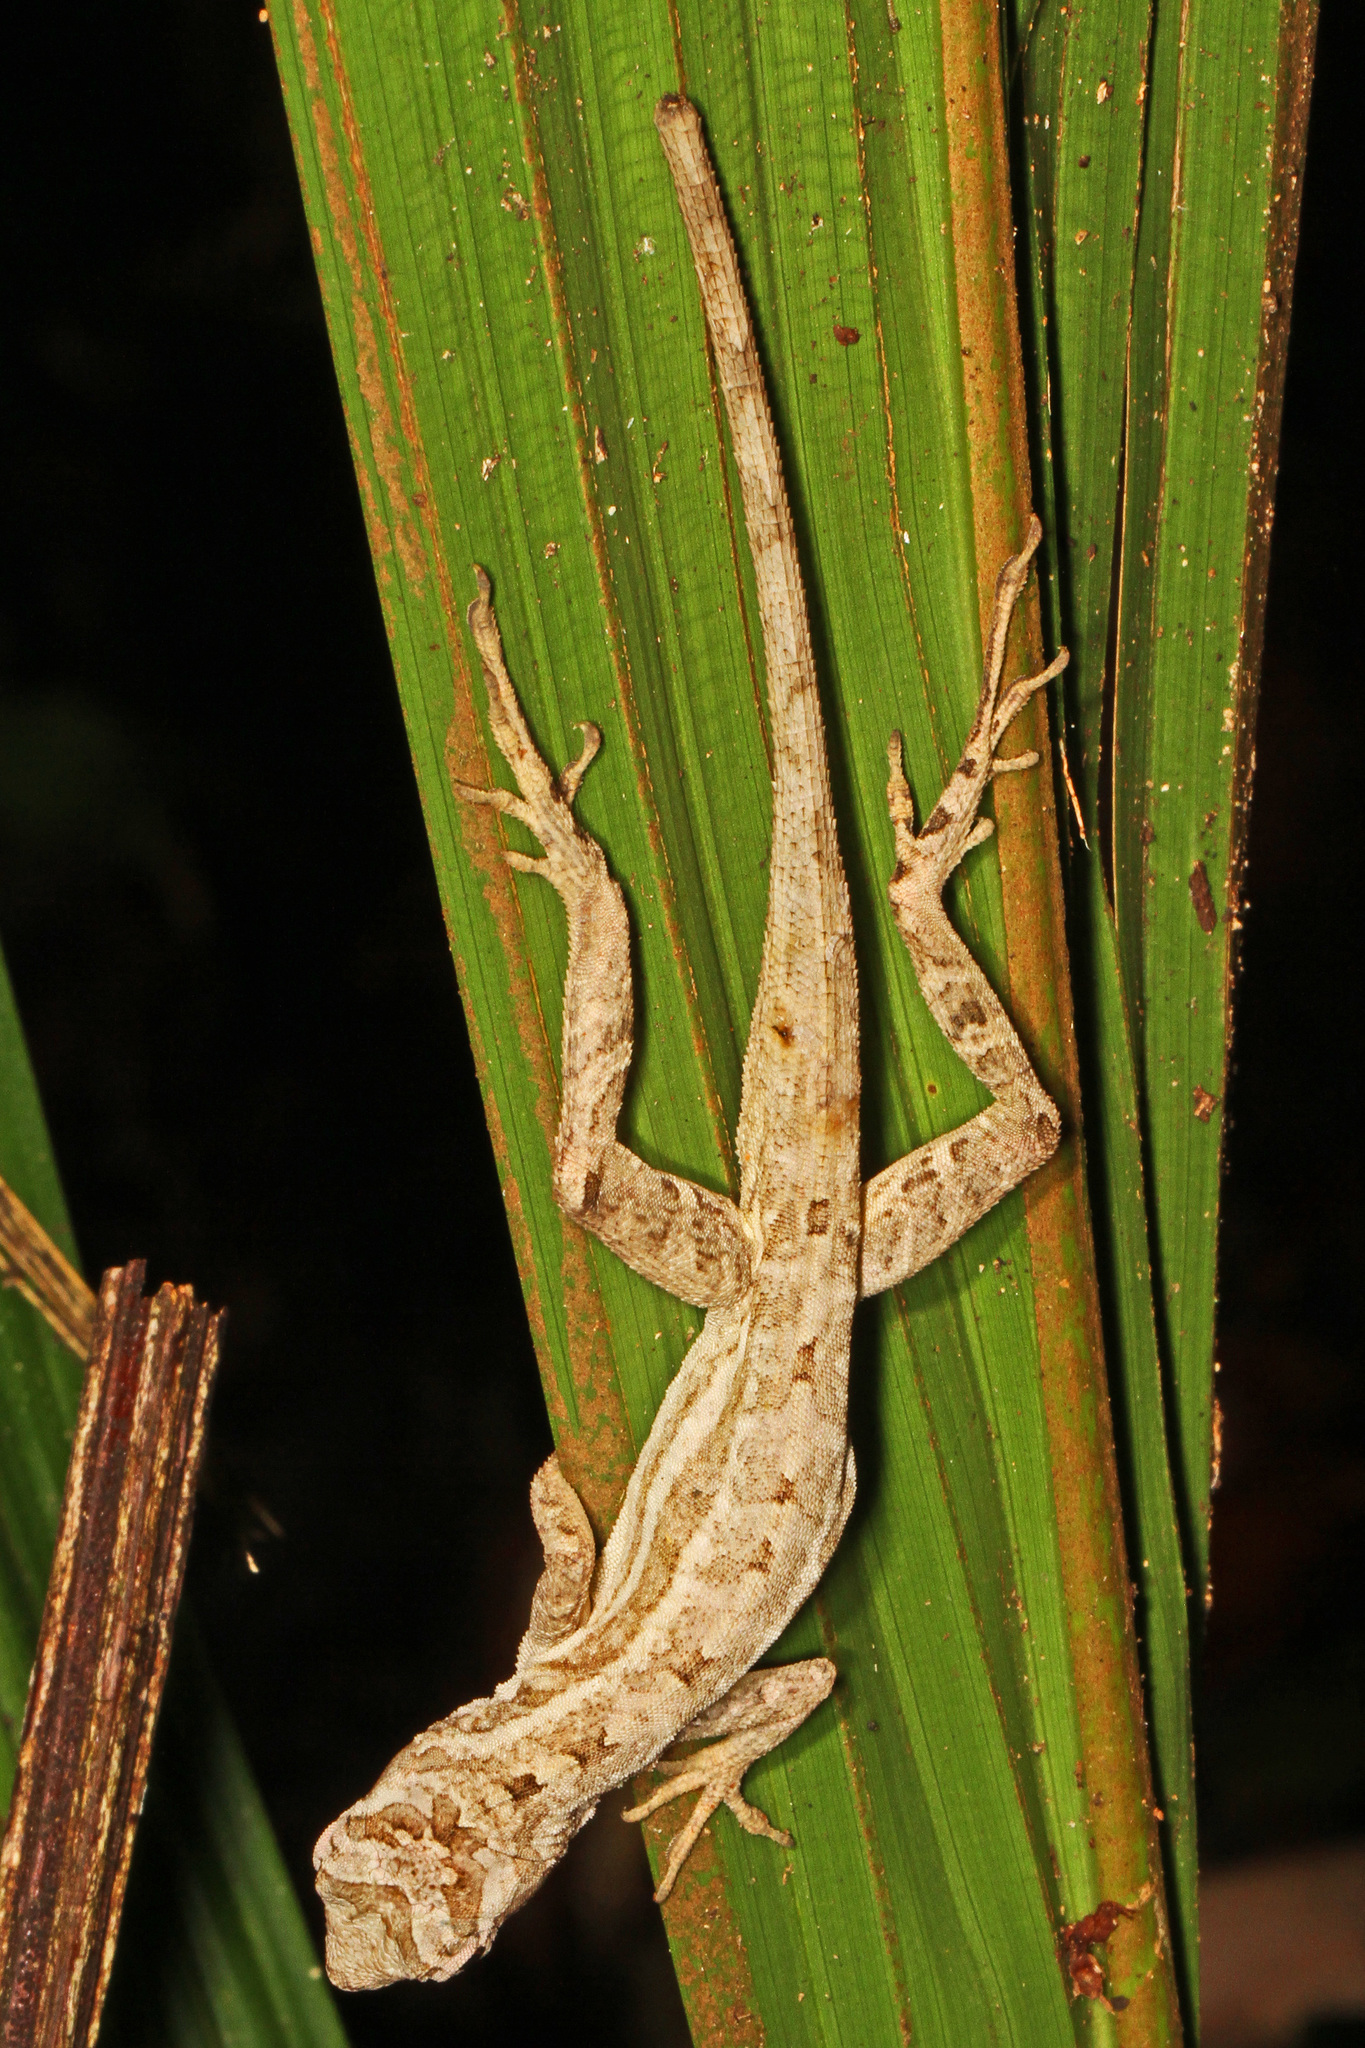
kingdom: Animalia
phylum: Chordata
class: Squamata
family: Dactyloidae
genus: Anolis
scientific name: Anolis lemurinus
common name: Ghost anole
